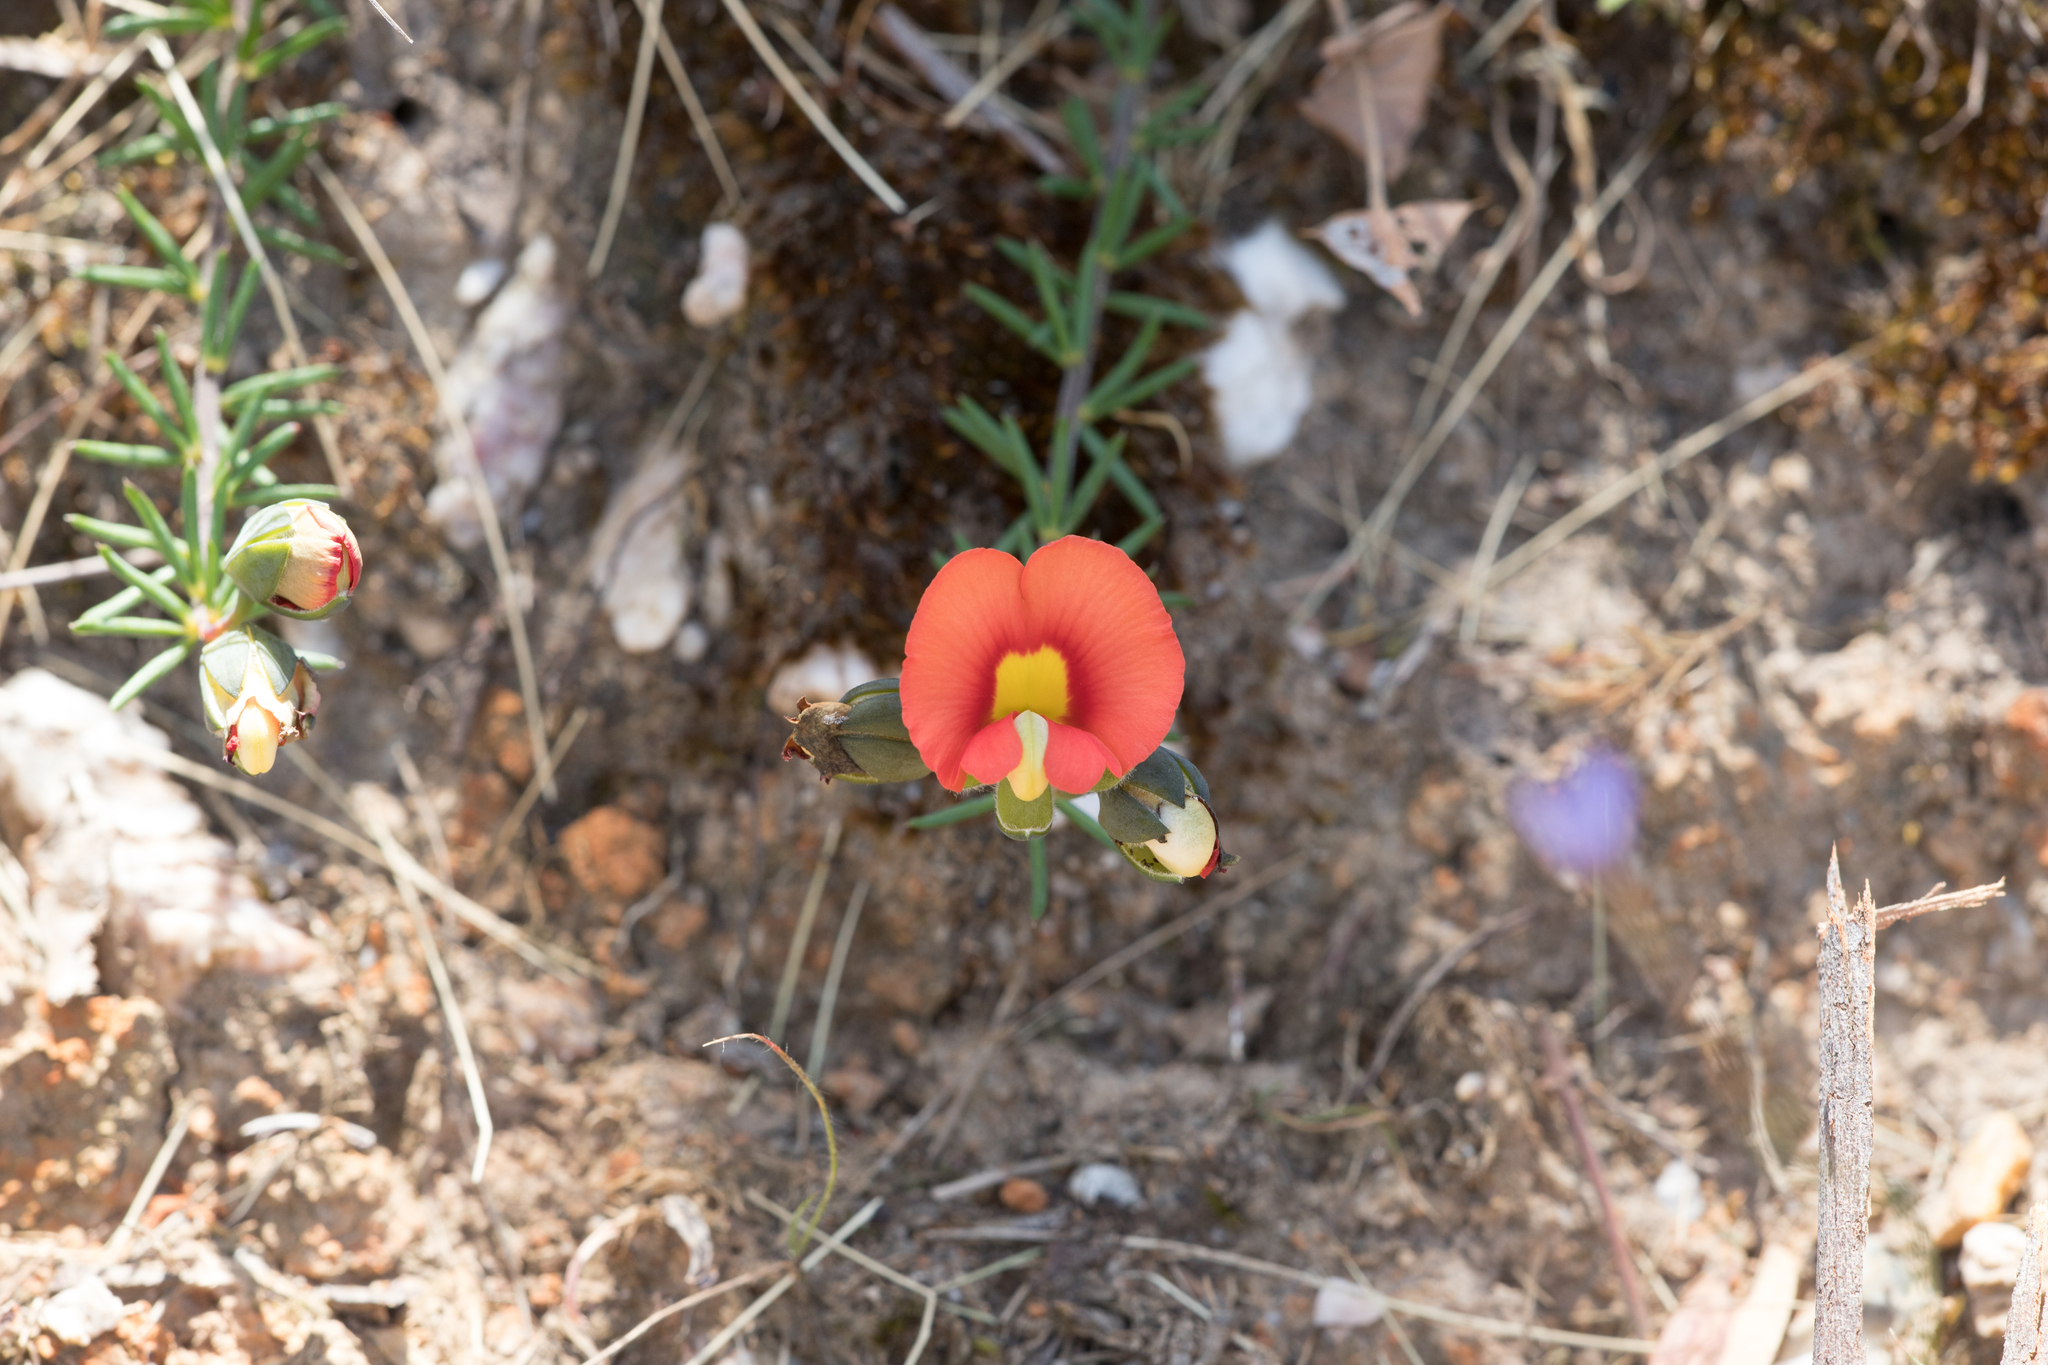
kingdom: Plantae
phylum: Tracheophyta
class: Magnoliopsida
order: Fabales
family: Fabaceae
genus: Gompholobium
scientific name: Gompholobium ecostatum
